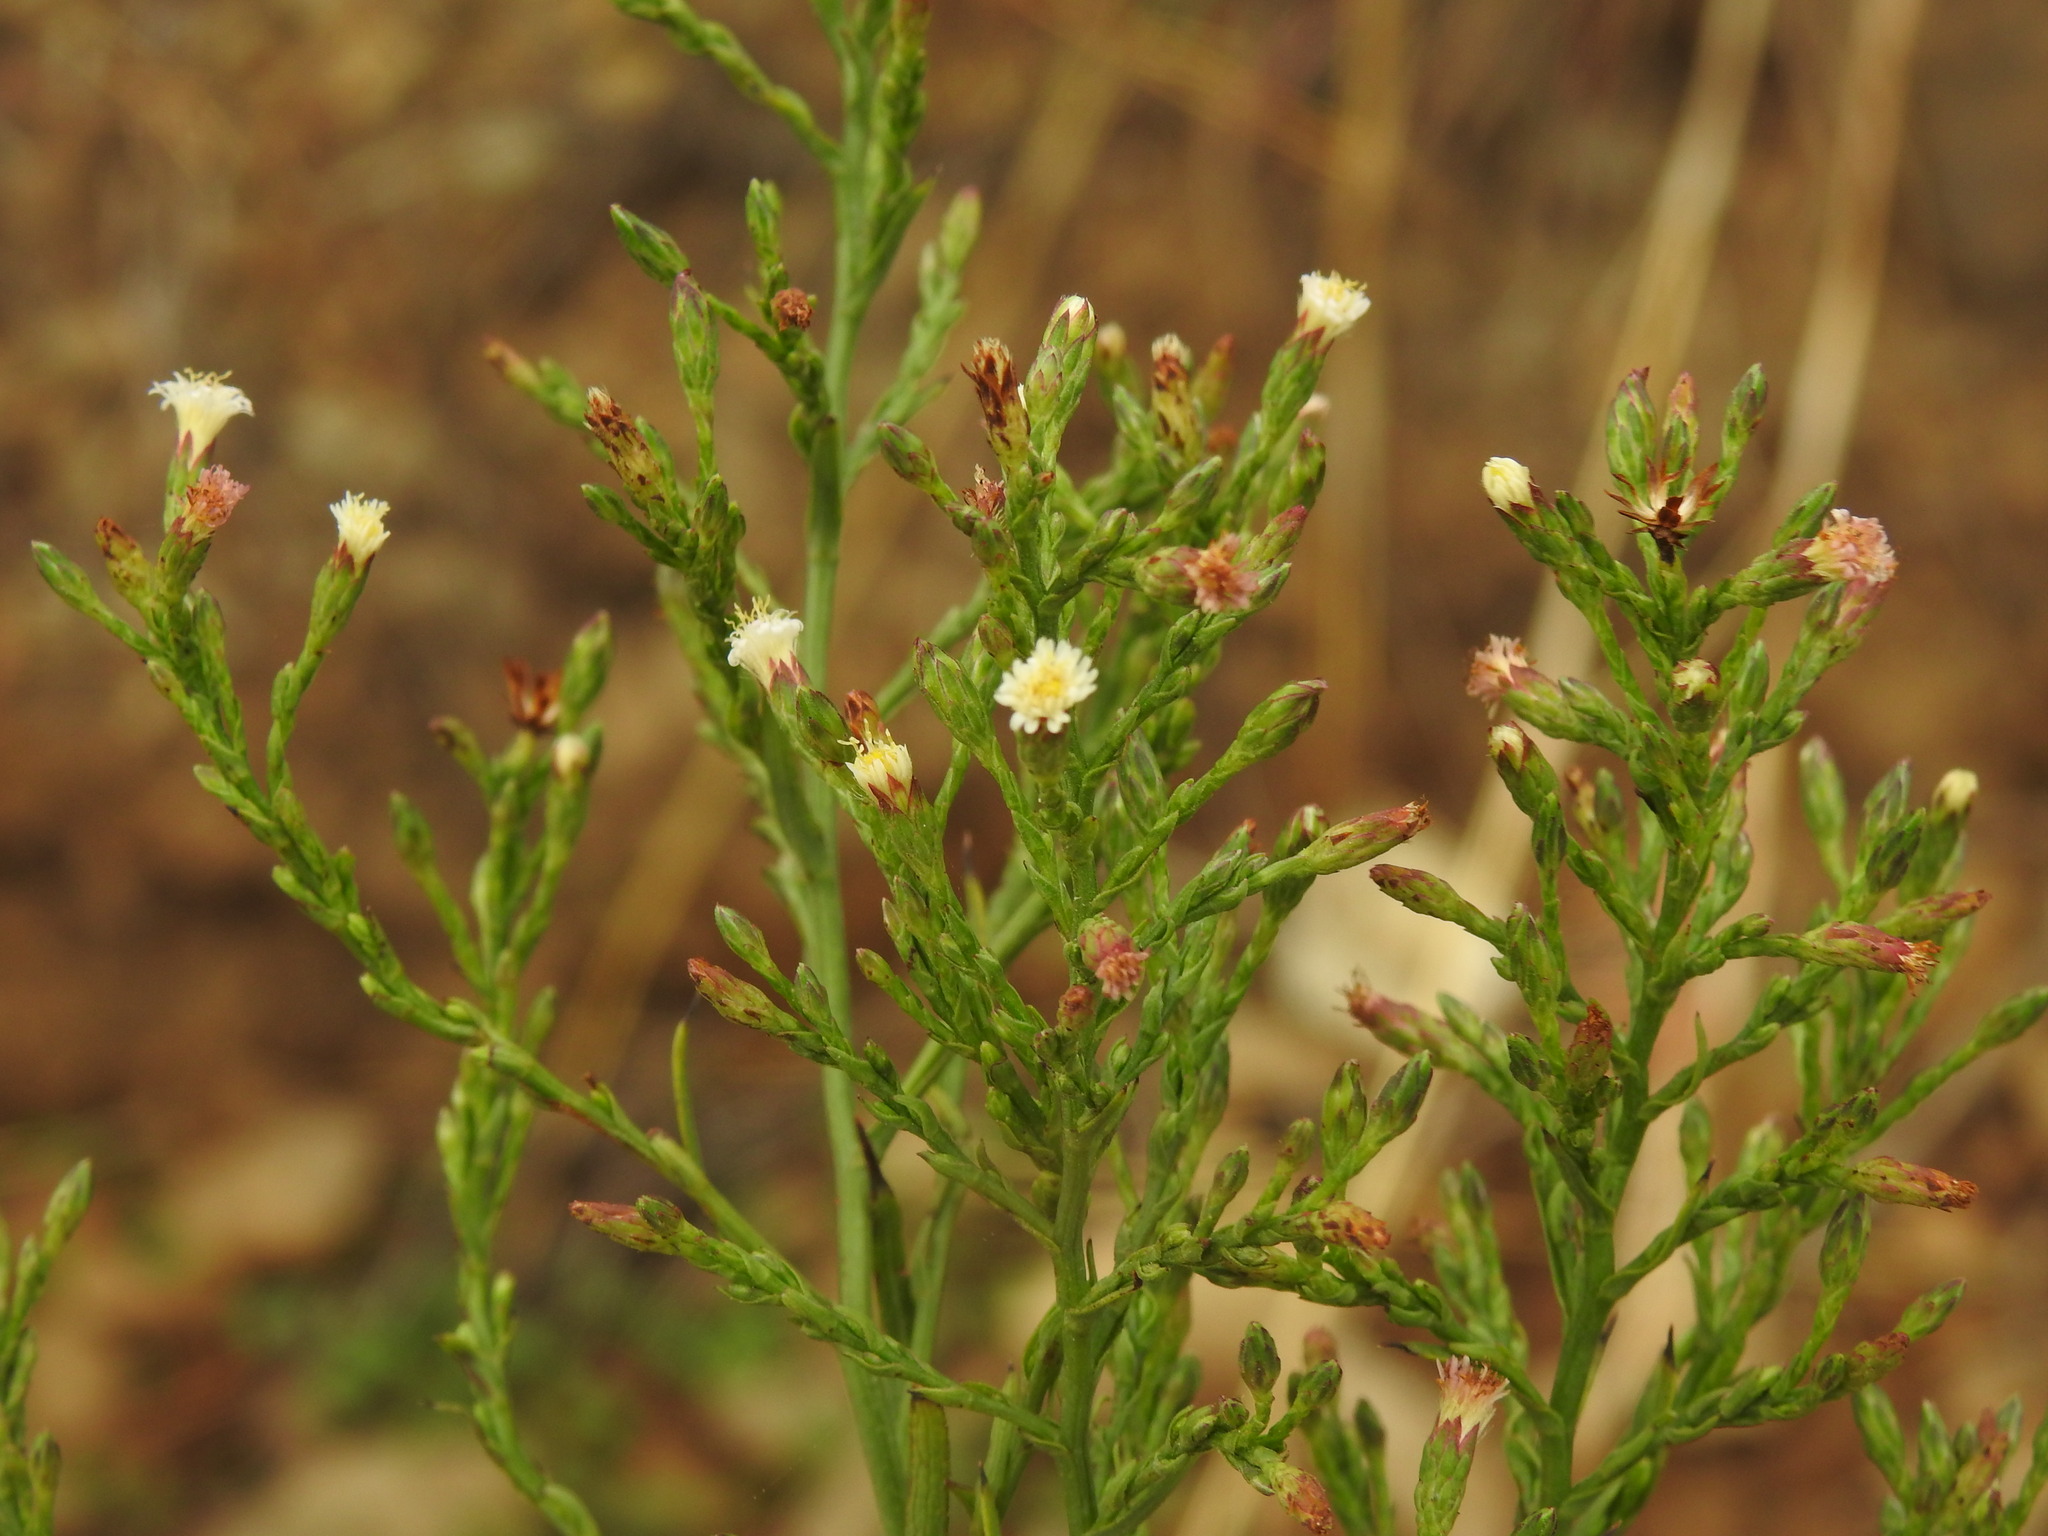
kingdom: Plantae
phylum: Tracheophyta
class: Magnoliopsida
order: Asterales
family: Asteraceae
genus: Symphyotrichum
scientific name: Symphyotrichum squamatum
